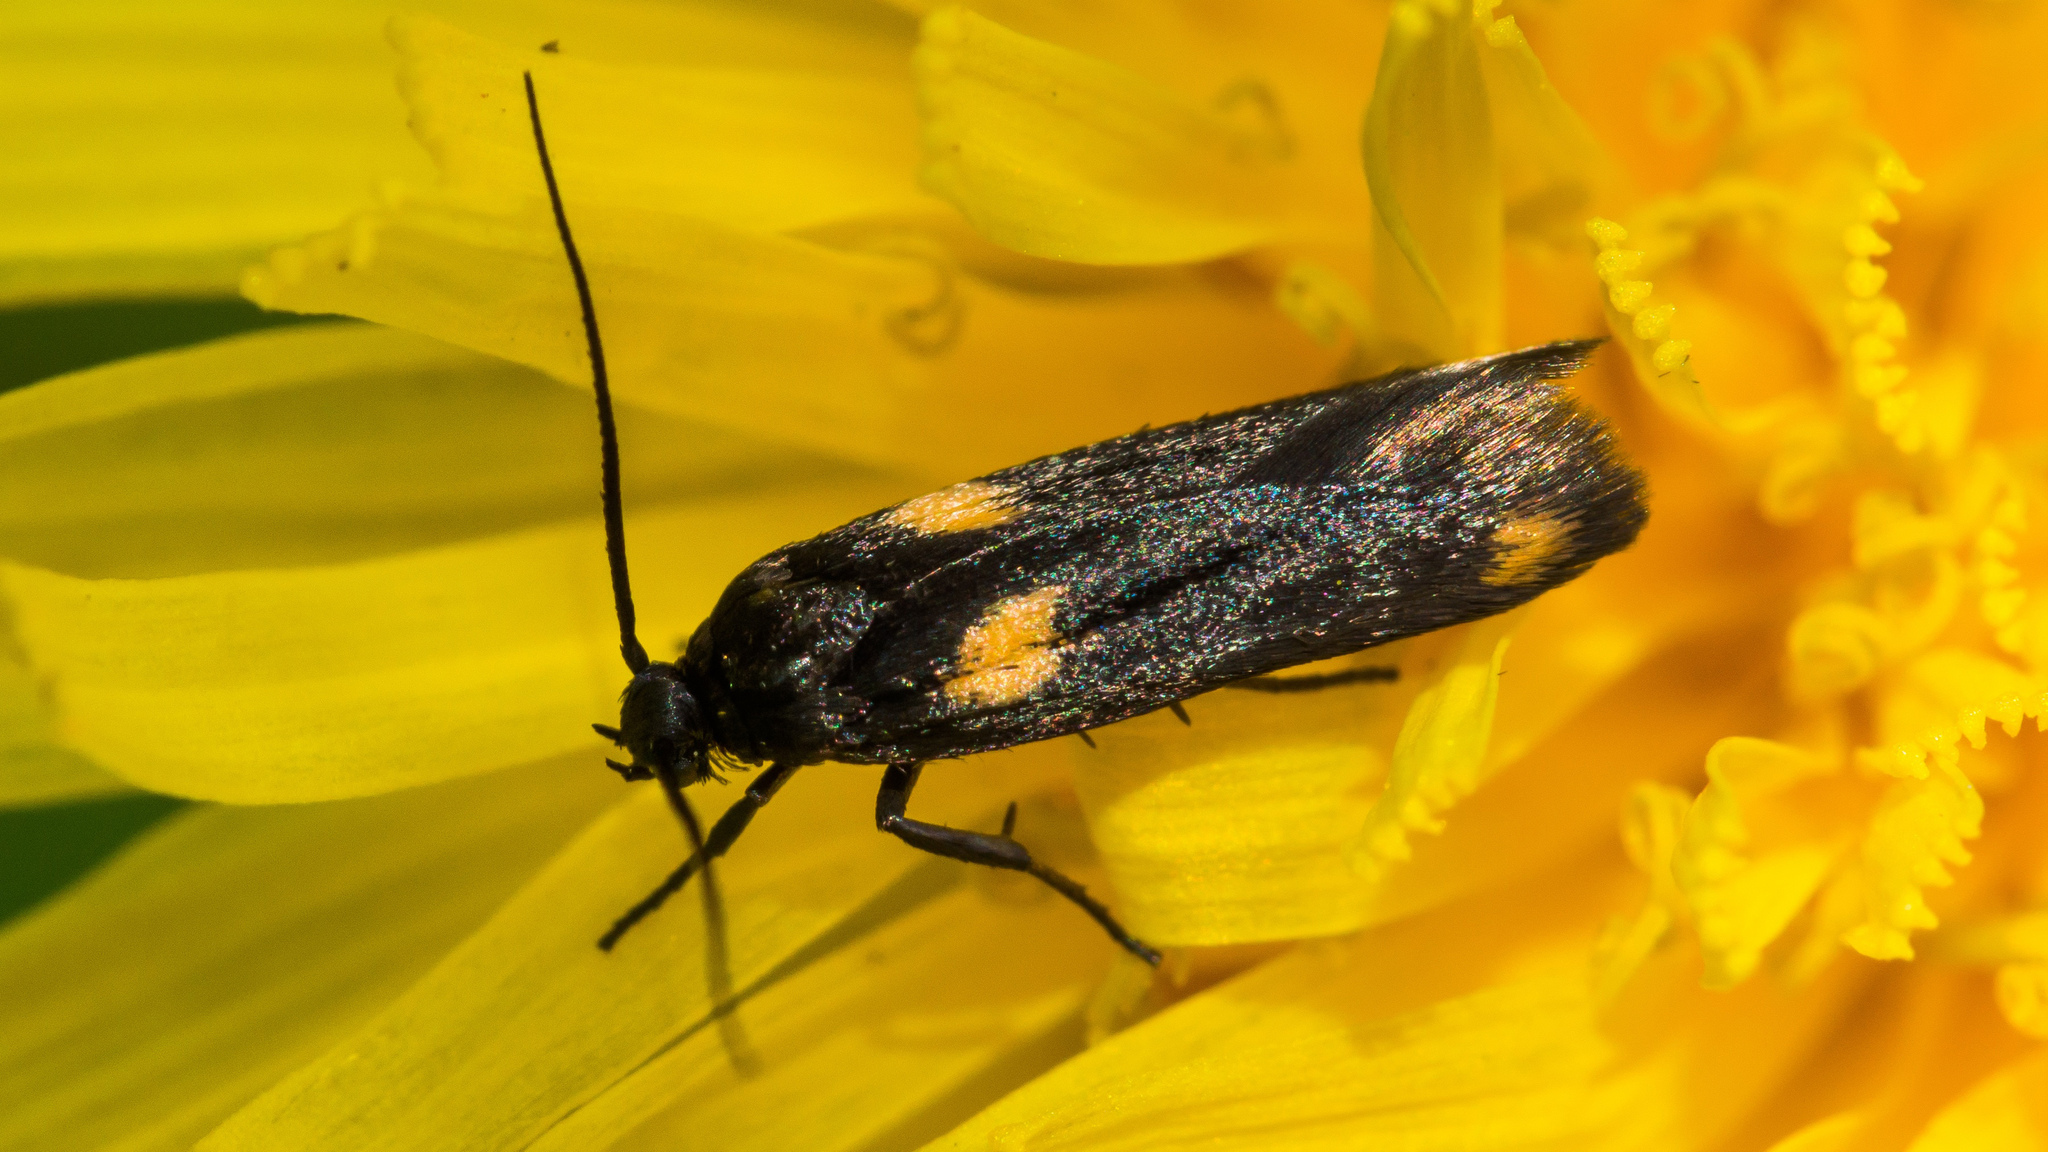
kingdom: Animalia
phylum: Arthropoda
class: Insecta
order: Lepidoptera
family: Scythrididae
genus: Scythris
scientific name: Scythris sinensis
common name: Kentish owlet
